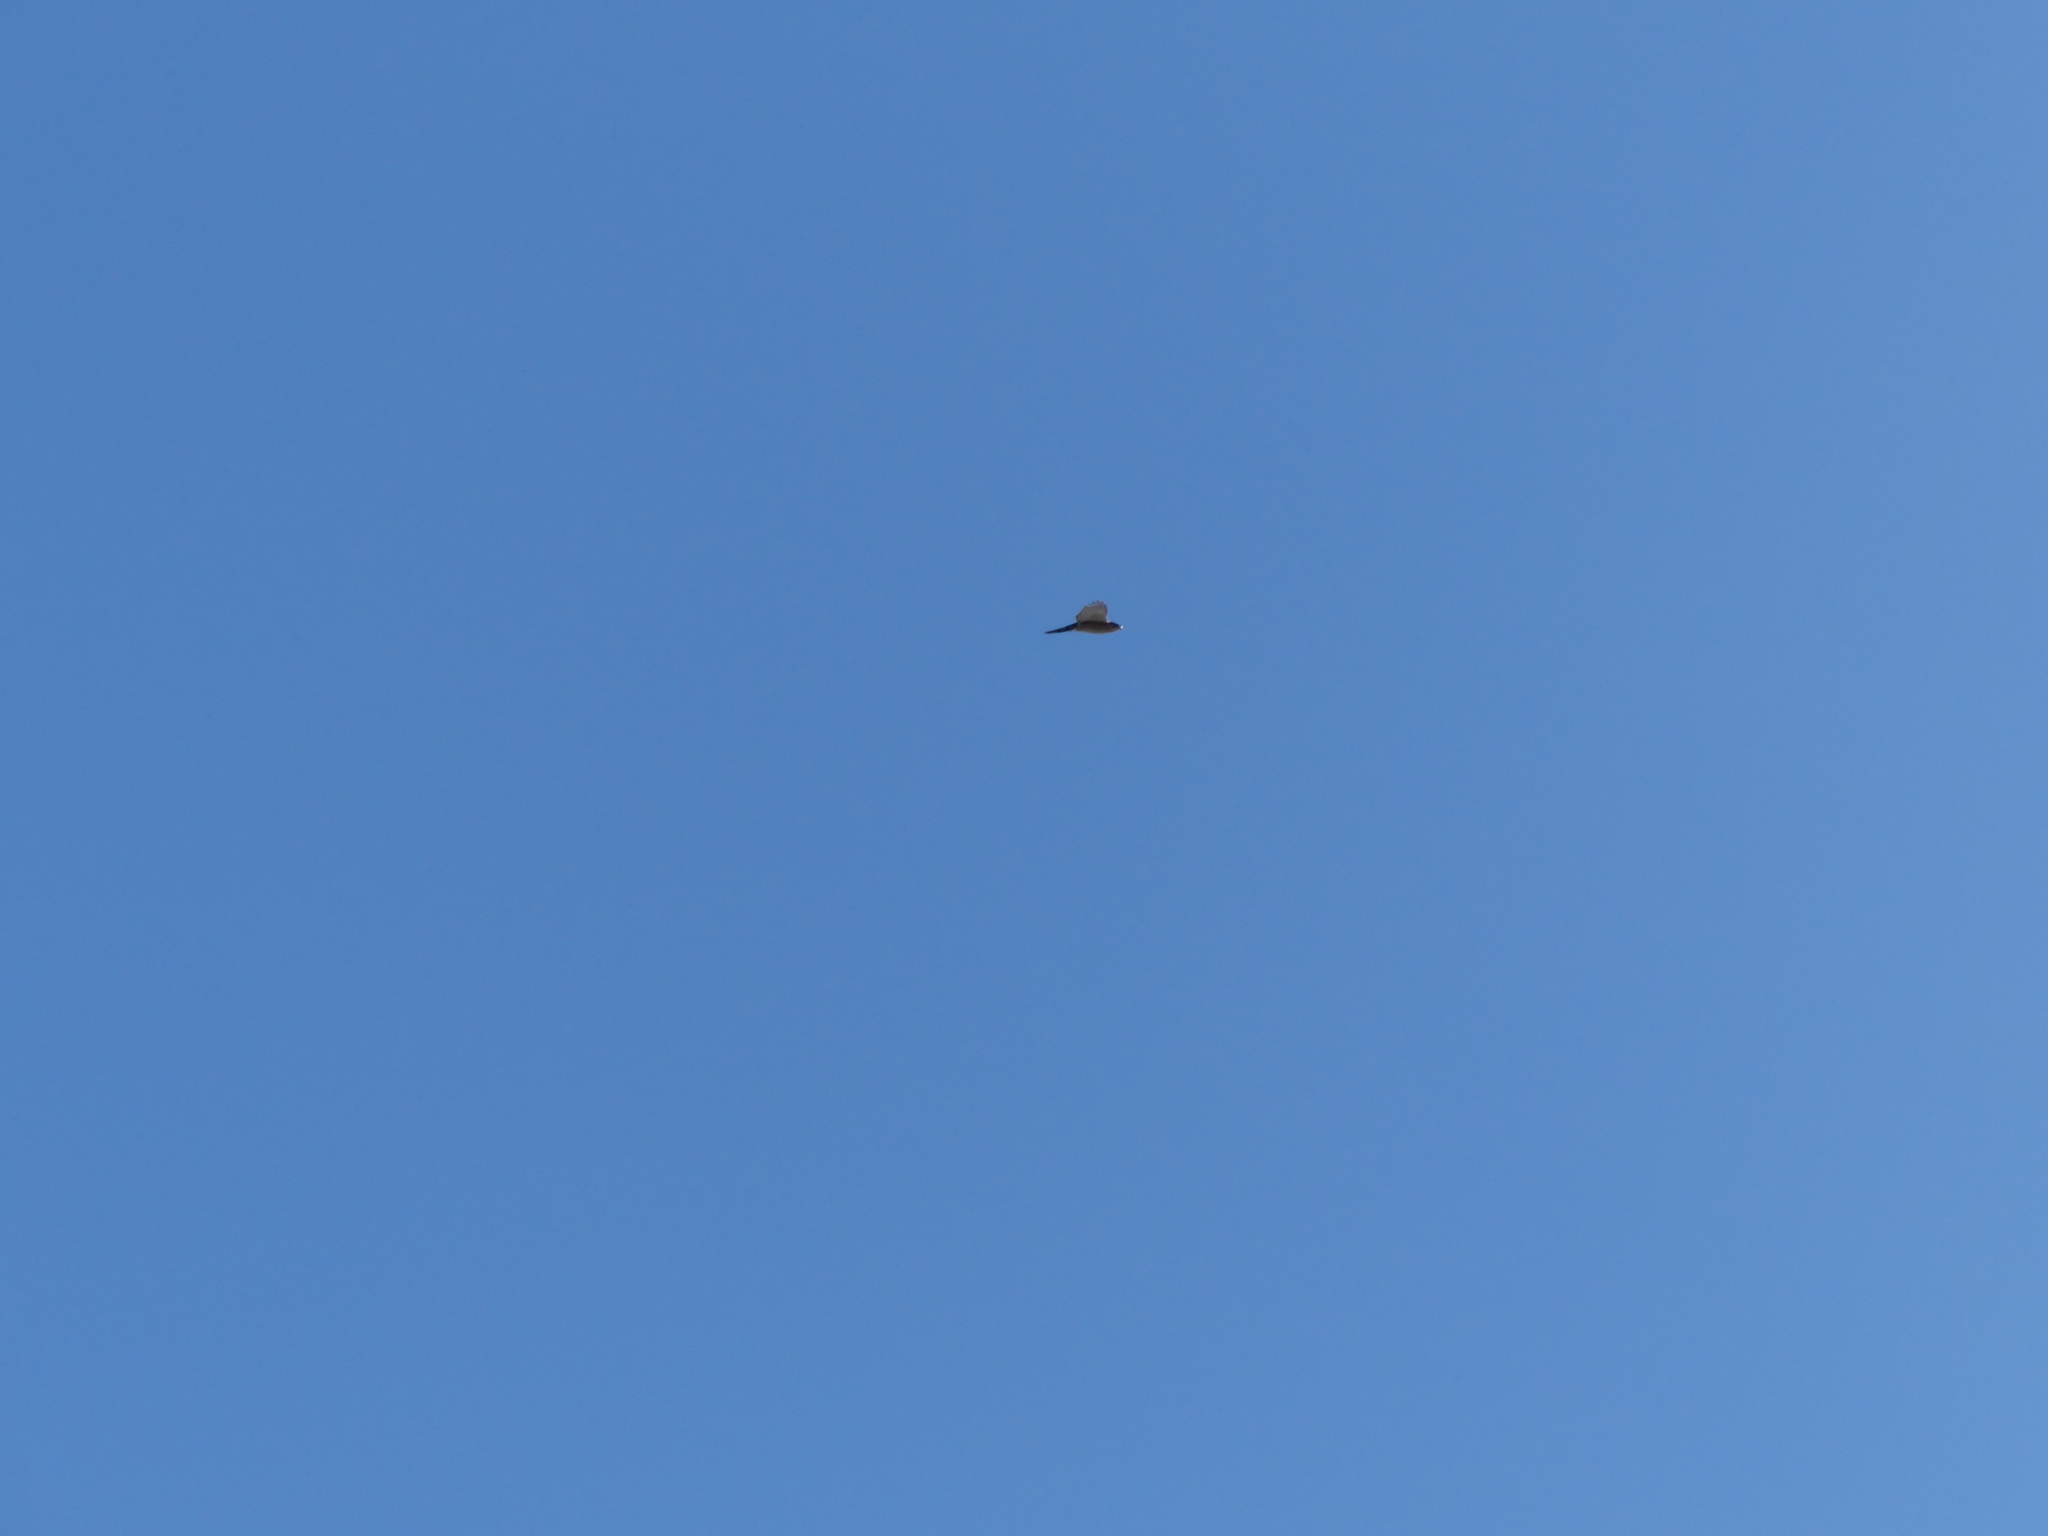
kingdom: Animalia
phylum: Chordata
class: Aves
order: Accipitriformes
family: Accipitridae
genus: Accipiter
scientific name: Accipiter cooperii
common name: Cooper's hawk
